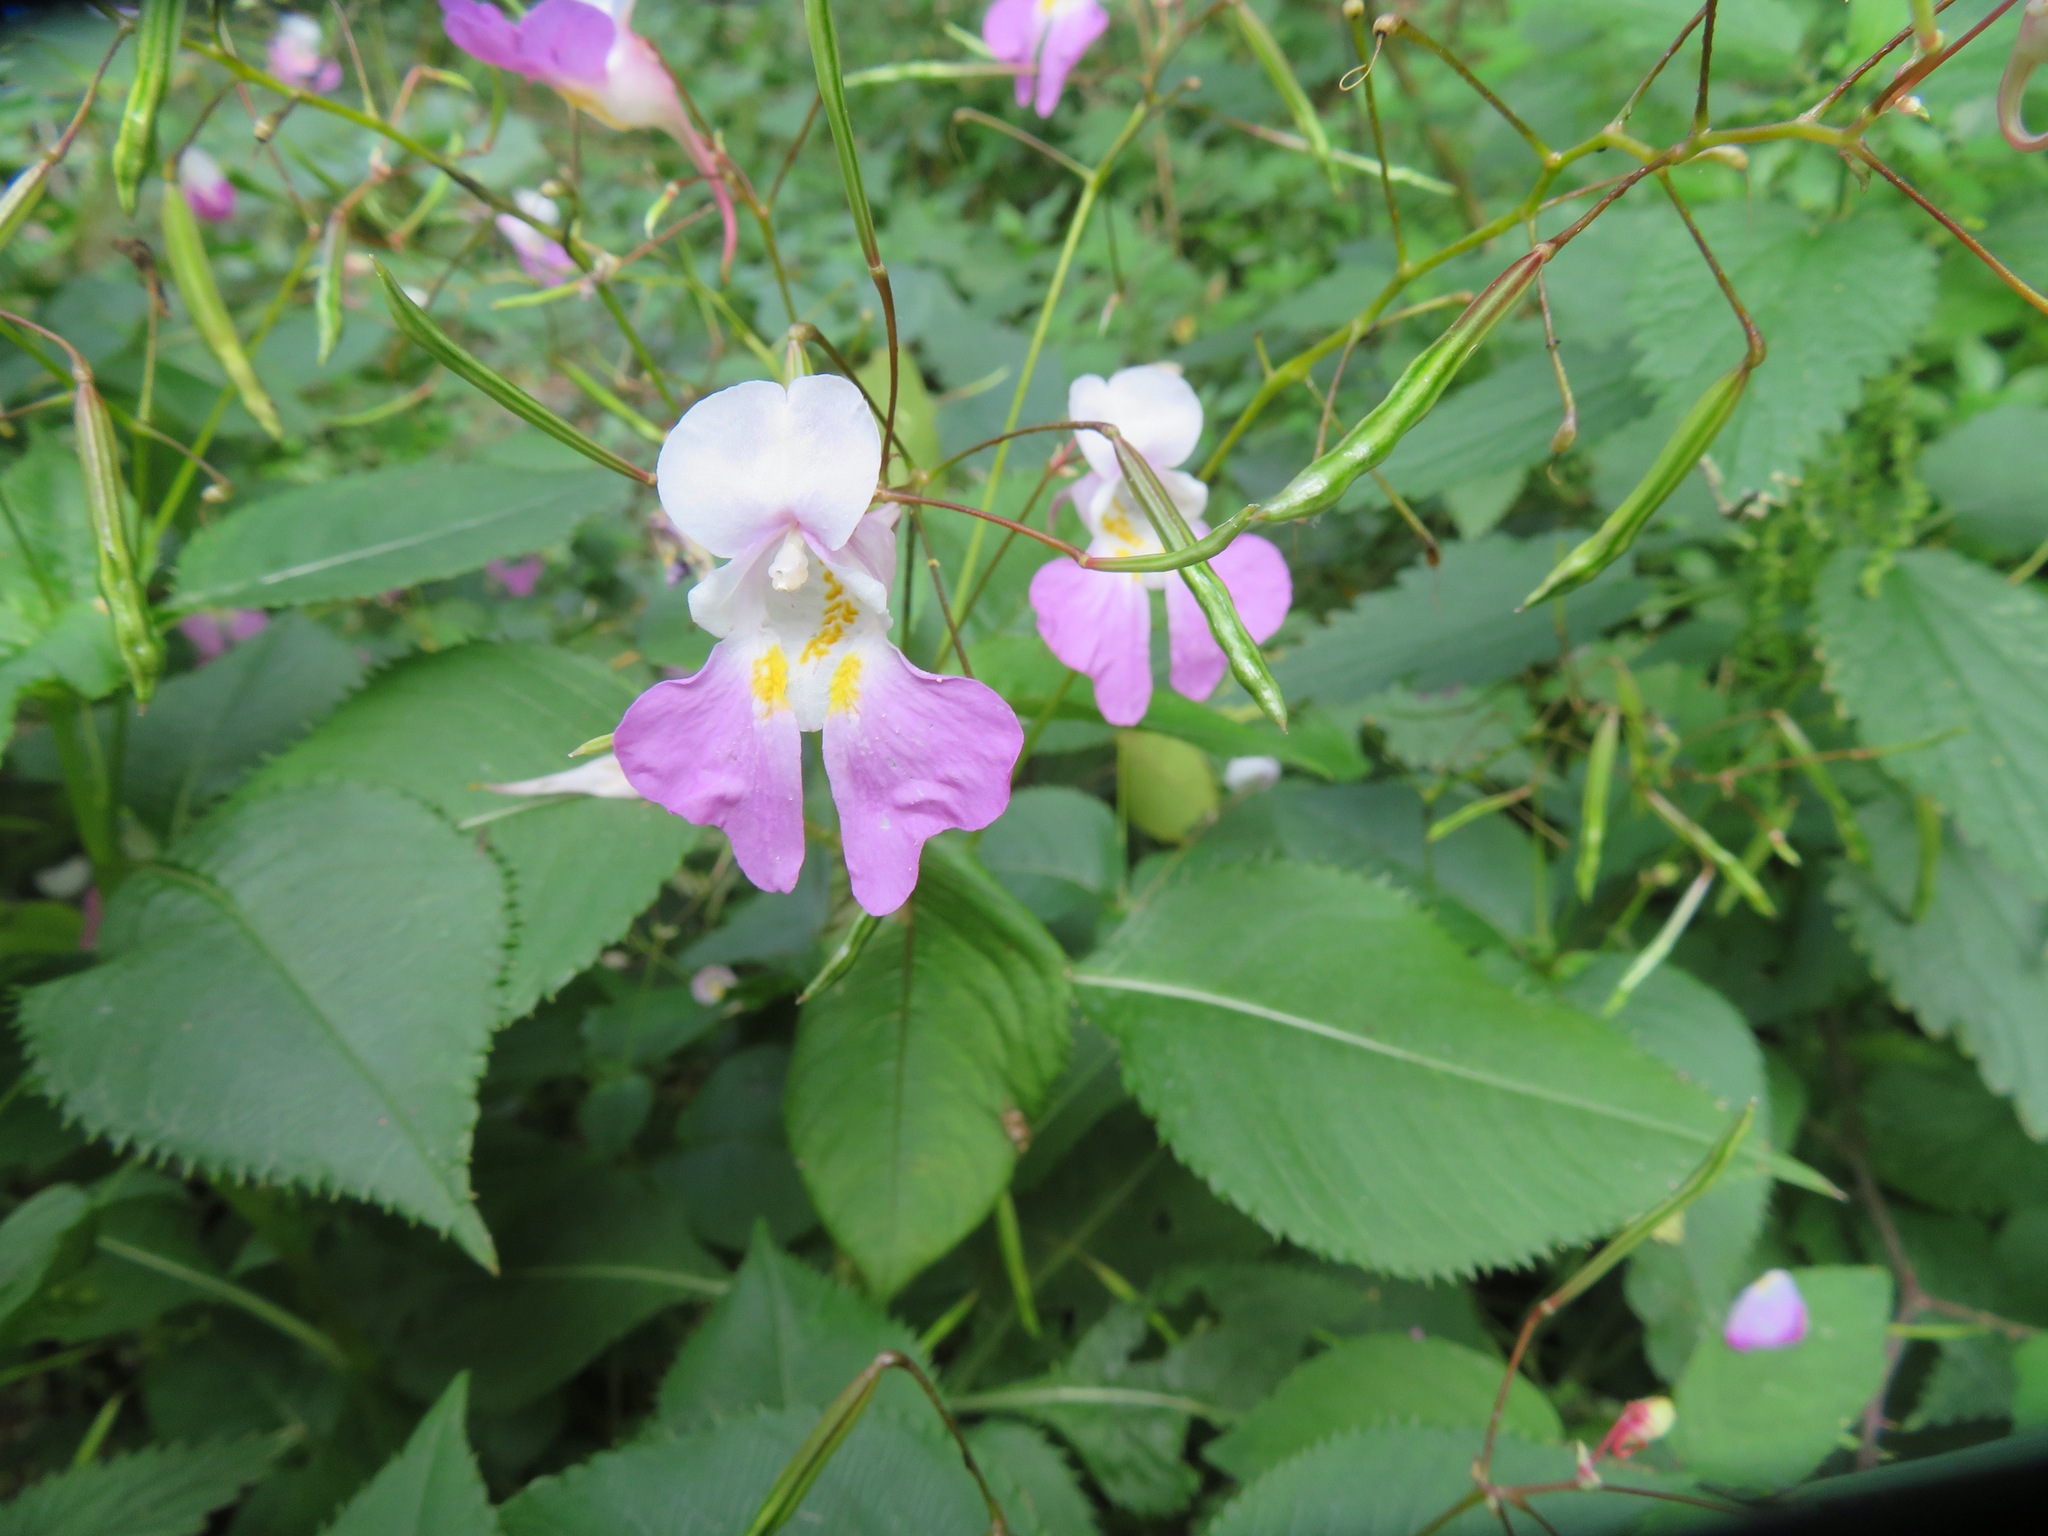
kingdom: Plantae
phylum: Tracheophyta
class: Magnoliopsida
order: Ericales
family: Balsaminaceae
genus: Impatiens
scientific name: Impatiens balfourii
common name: Balfour's touch-me-not
